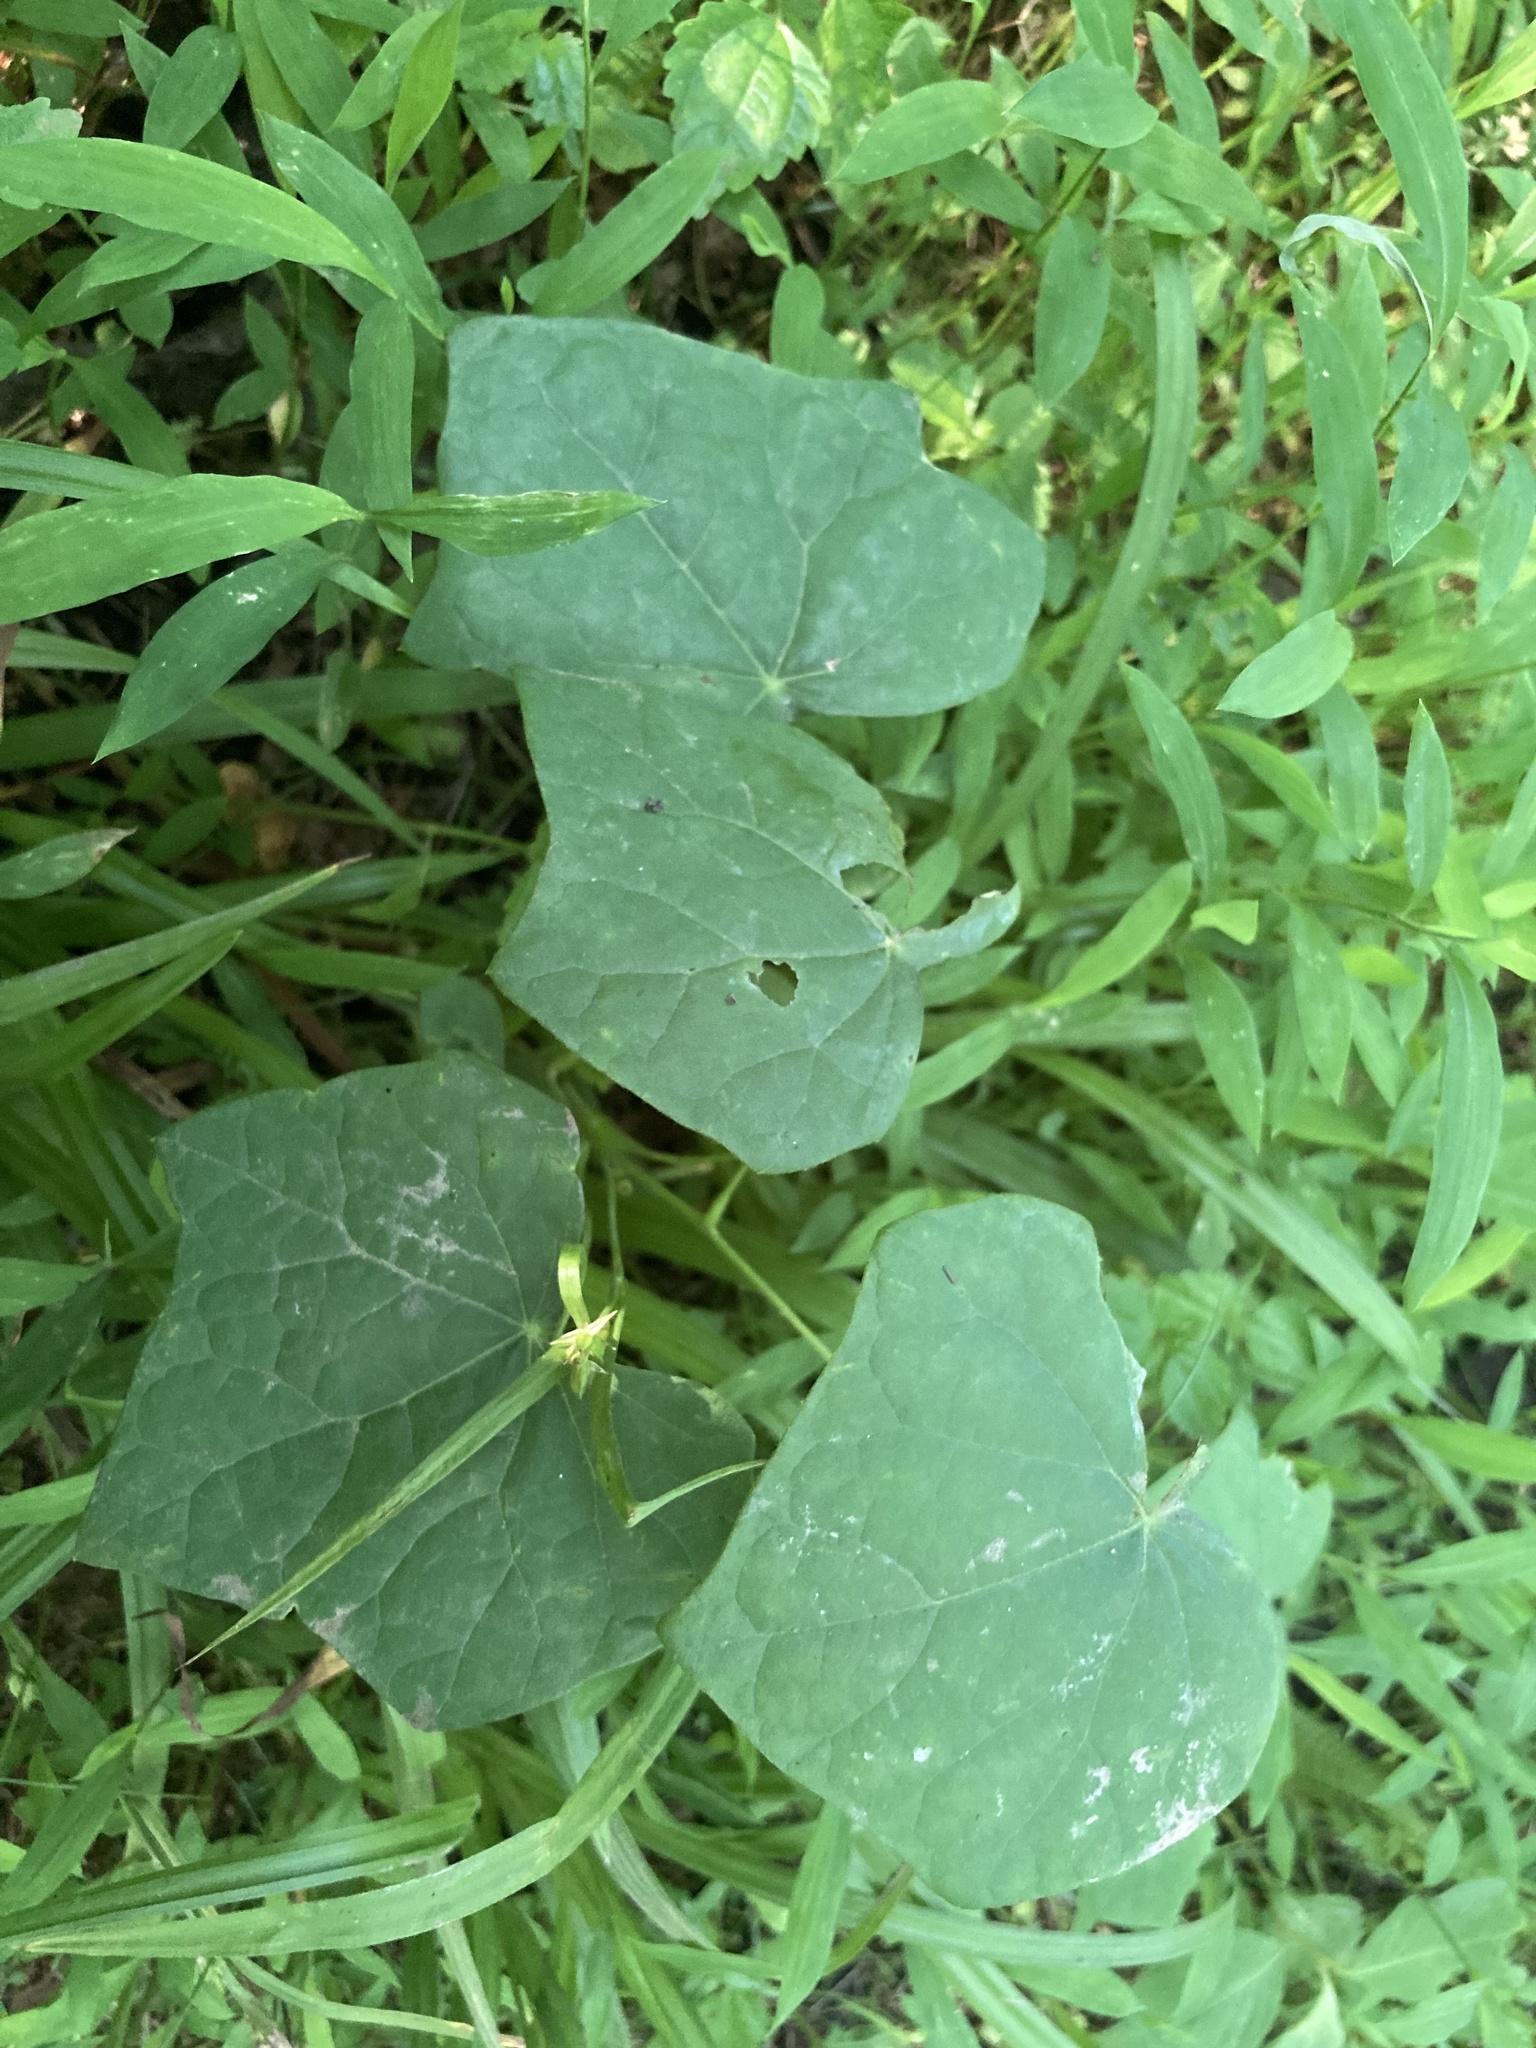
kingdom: Plantae
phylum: Tracheophyta
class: Magnoliopsida
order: Ranunculales
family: Menispermaceae
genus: Menispermum
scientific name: Menispermum canadense
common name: Moonseed
